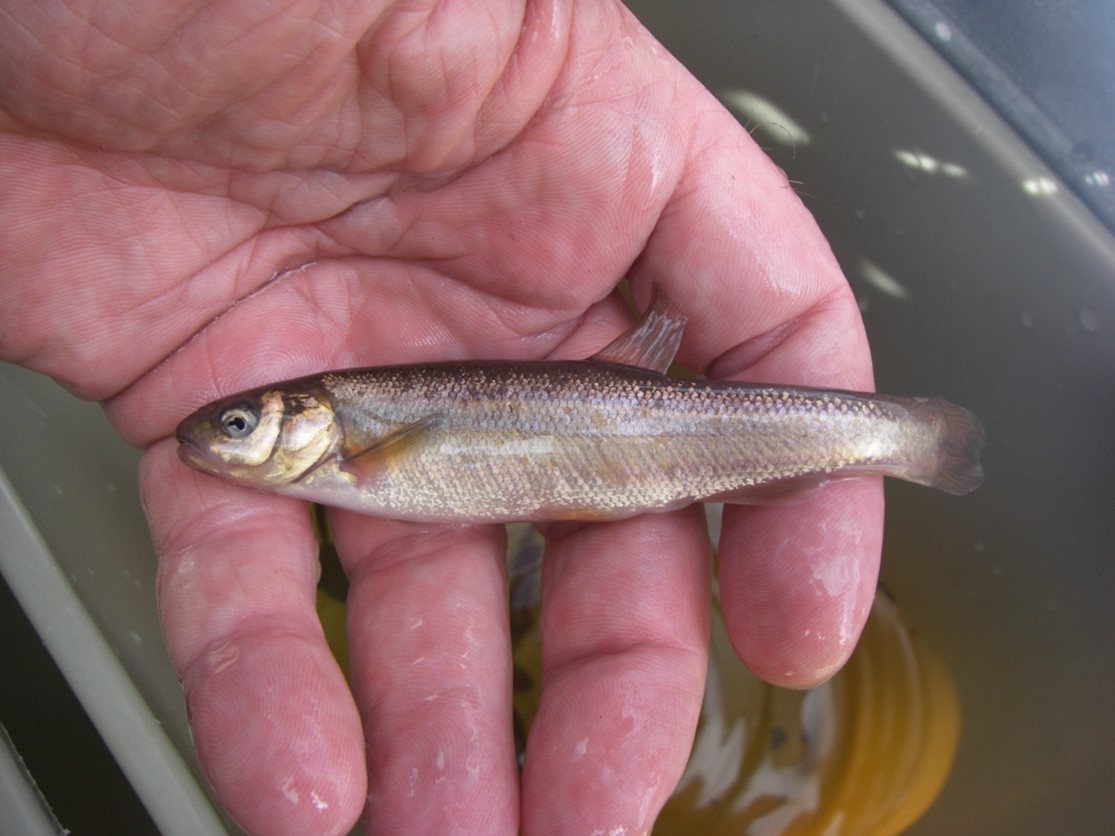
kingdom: Animalia
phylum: Chordata
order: Cypriniformes
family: Cyprinidae
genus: Margariscus
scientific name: Margariscus nachtriebi
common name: Northern pearl dace
